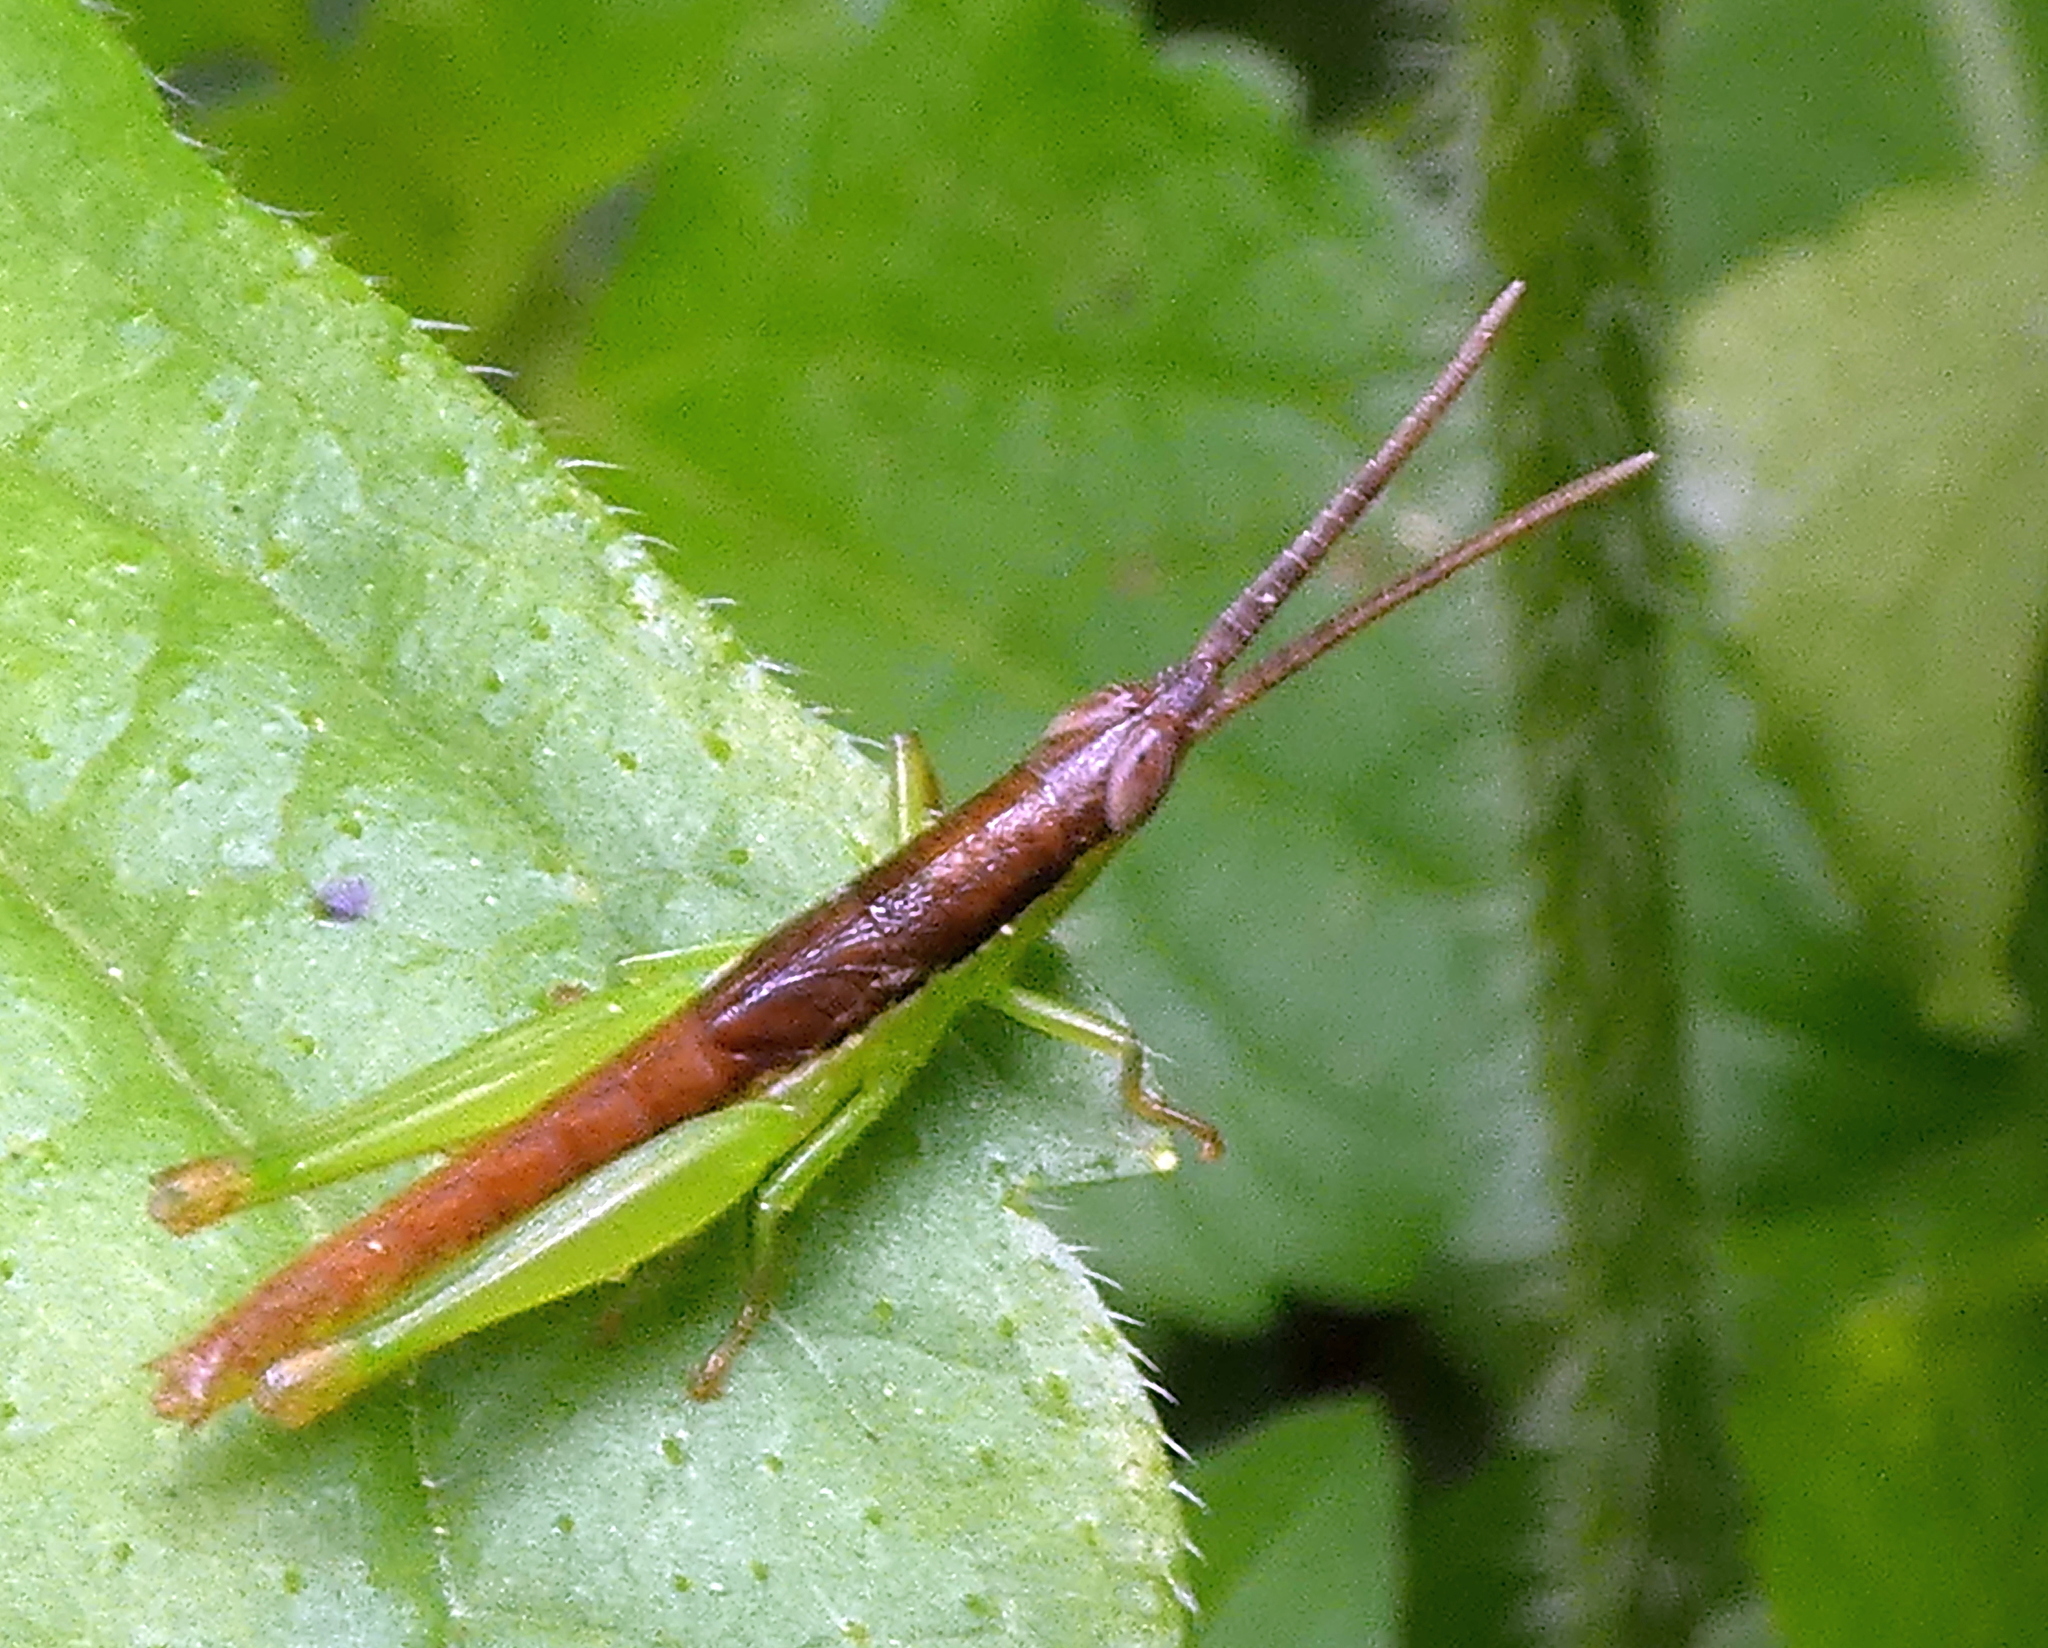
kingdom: Animalia
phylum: Arthropoda
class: Insecta
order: Orthoptera
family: Acrididae
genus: Stenopola
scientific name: Stenopola dorsalis
